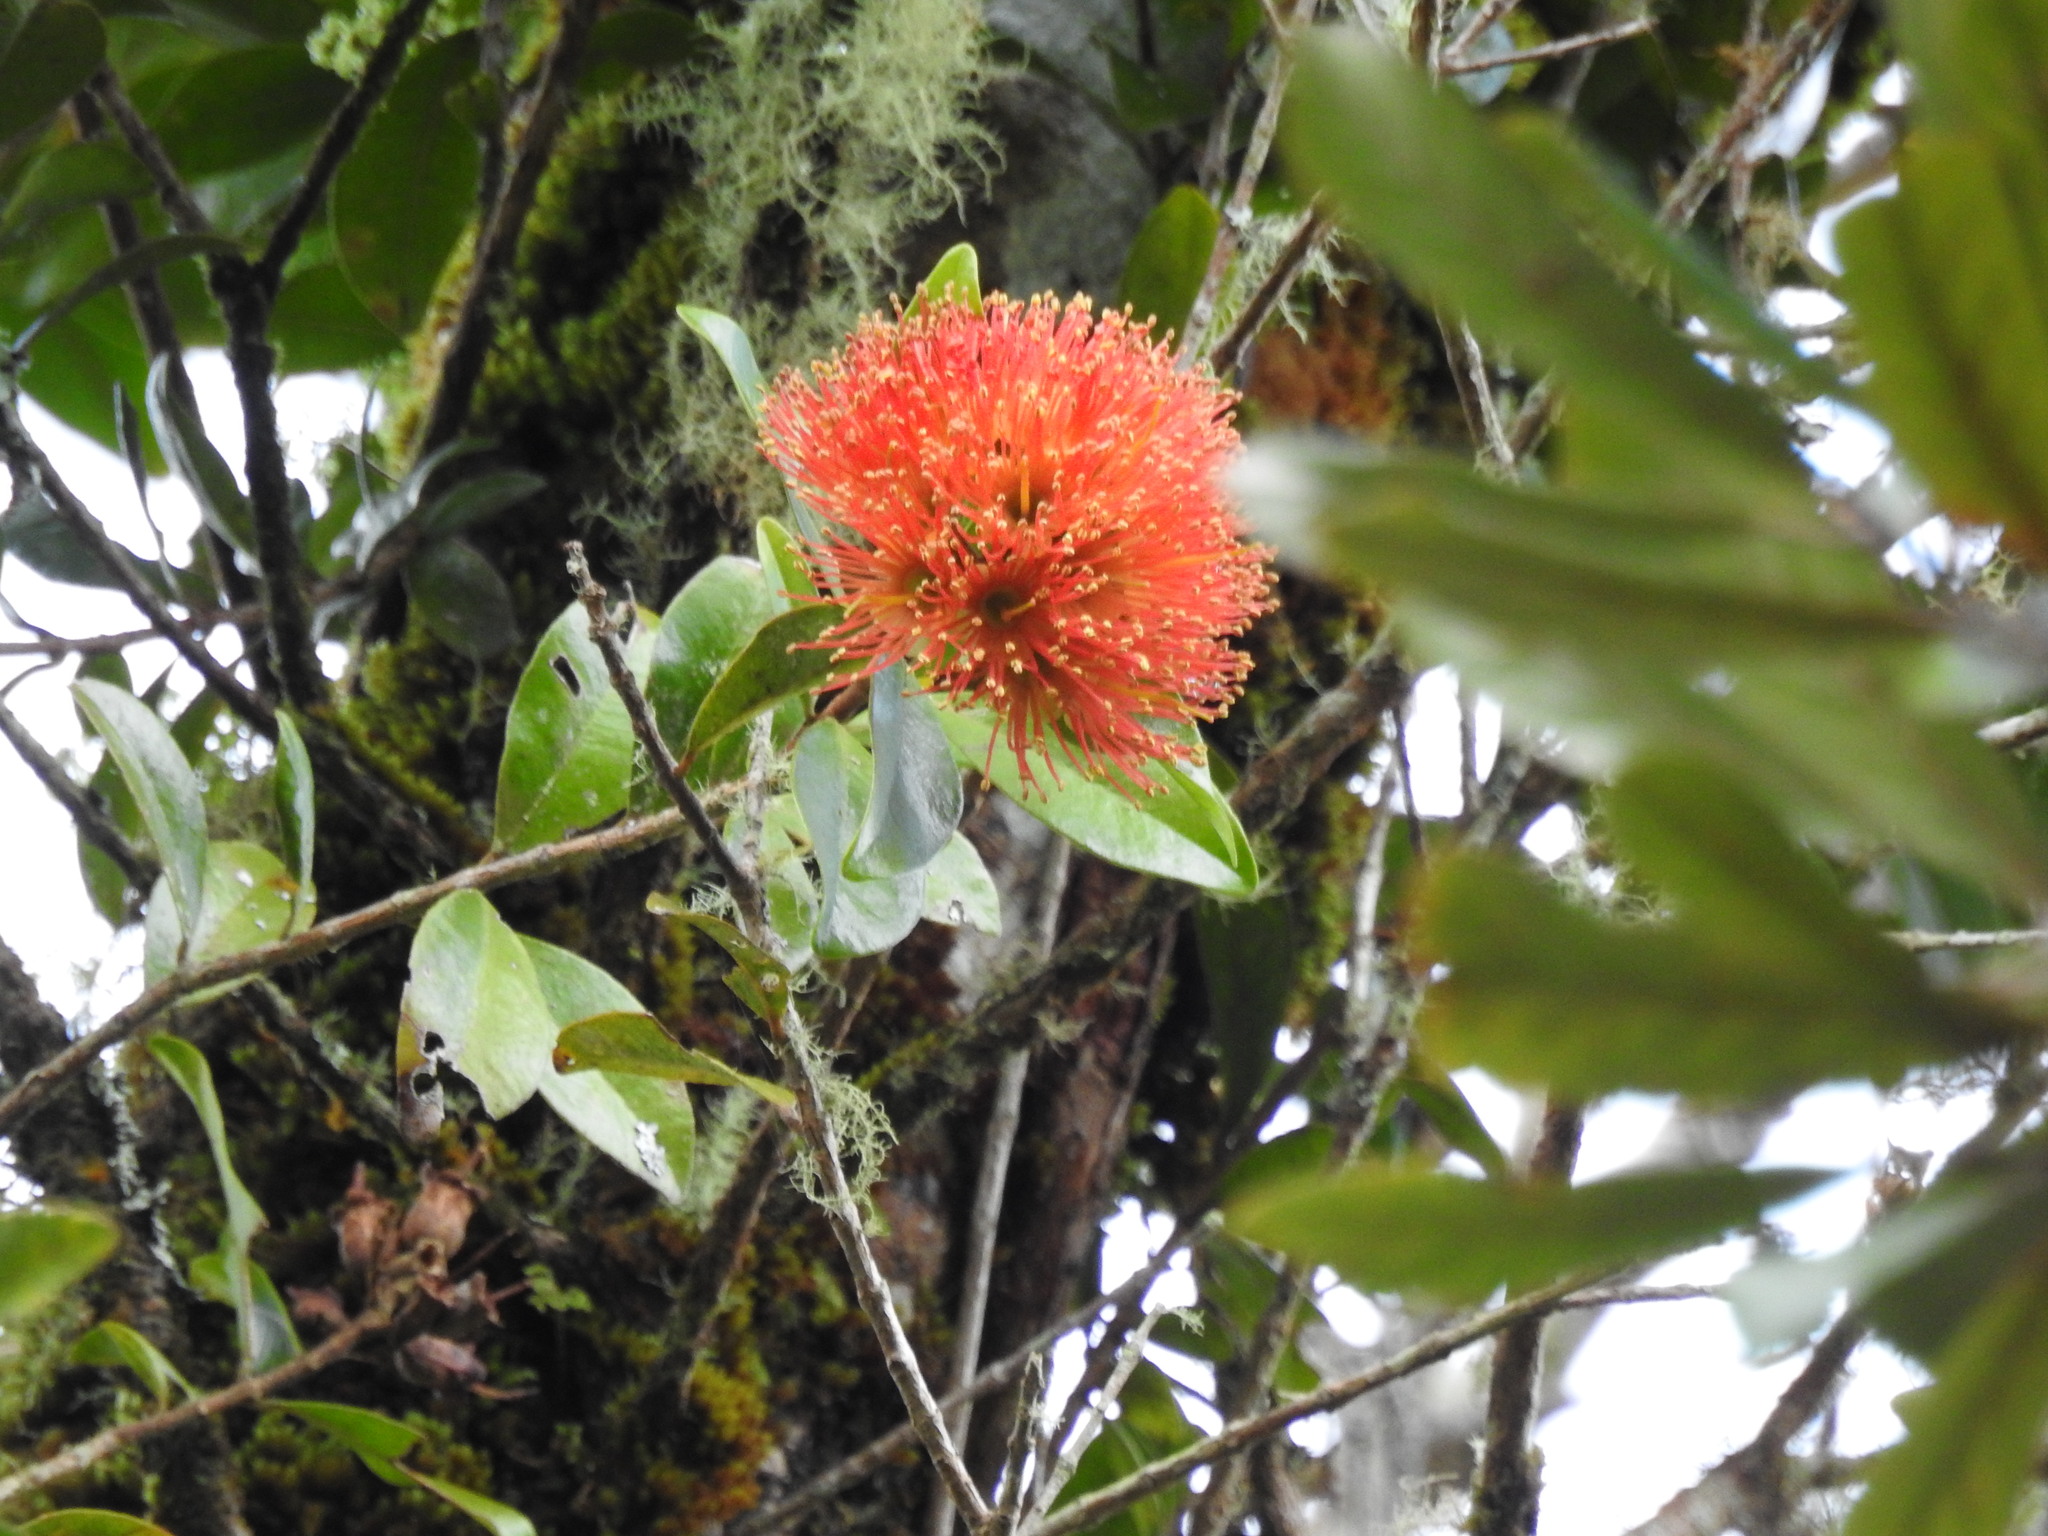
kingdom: Plantae
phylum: Tracheophyta
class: Magnoliopsida
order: Myrtales
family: Myrtaceae
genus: Metrosideros
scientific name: Metrosideros fulgens
